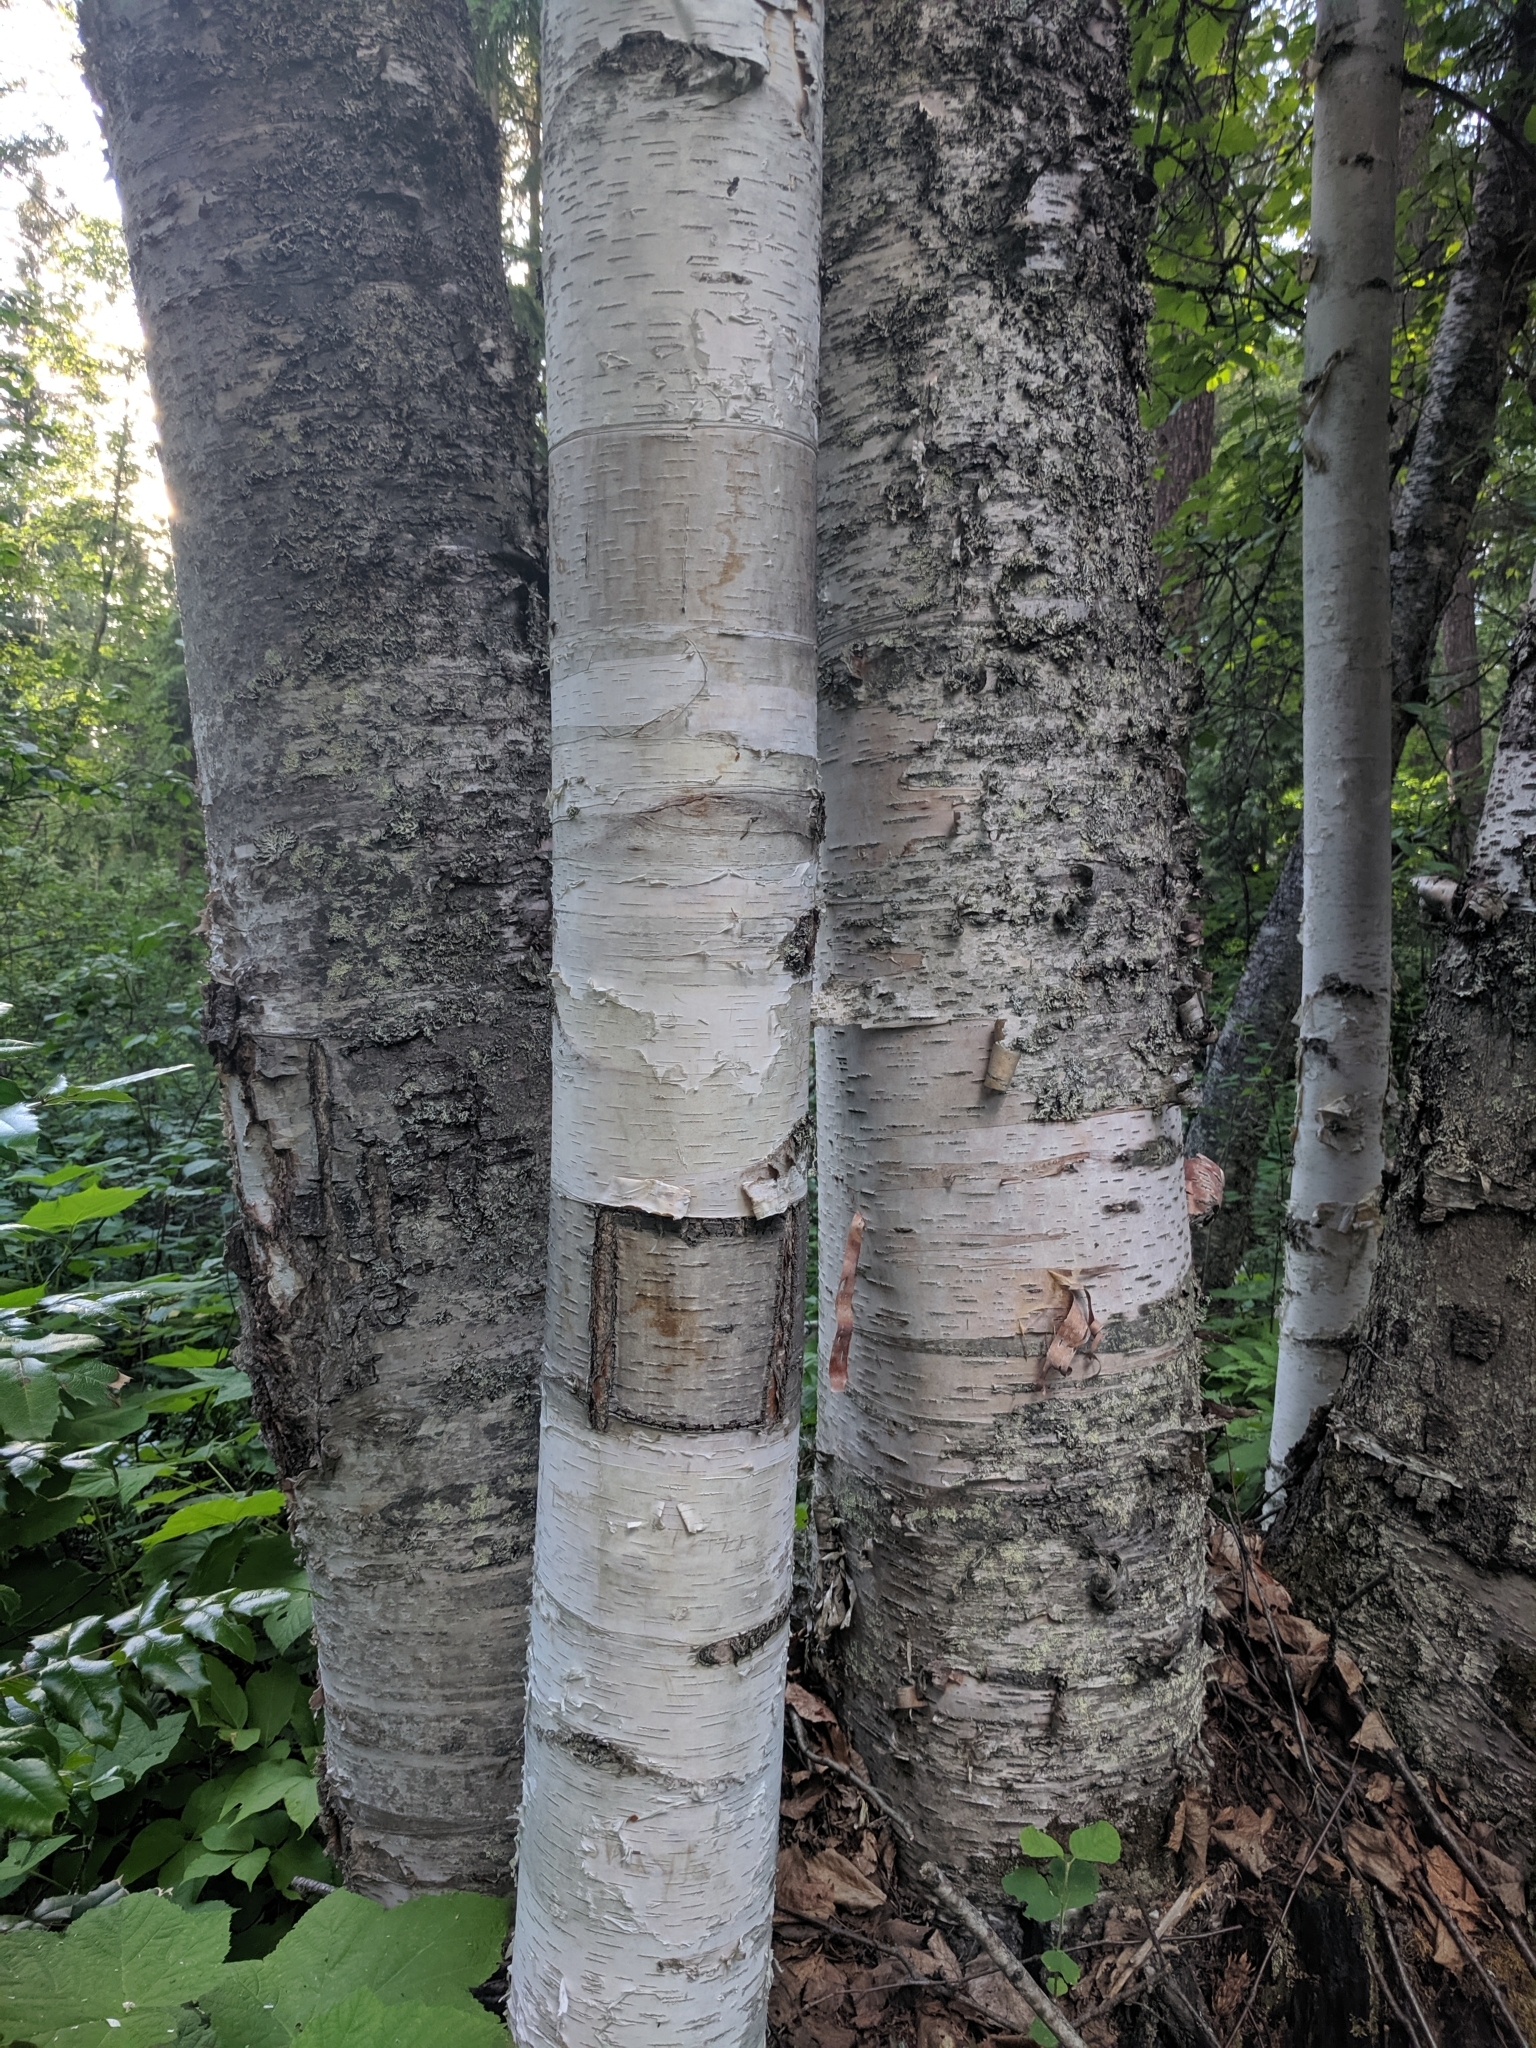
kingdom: Plantae
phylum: Tracheophyta
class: Magnoliopsida
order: Fagales
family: Betulaceae
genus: Betula
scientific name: Betula papyrifera
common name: Paper birch
